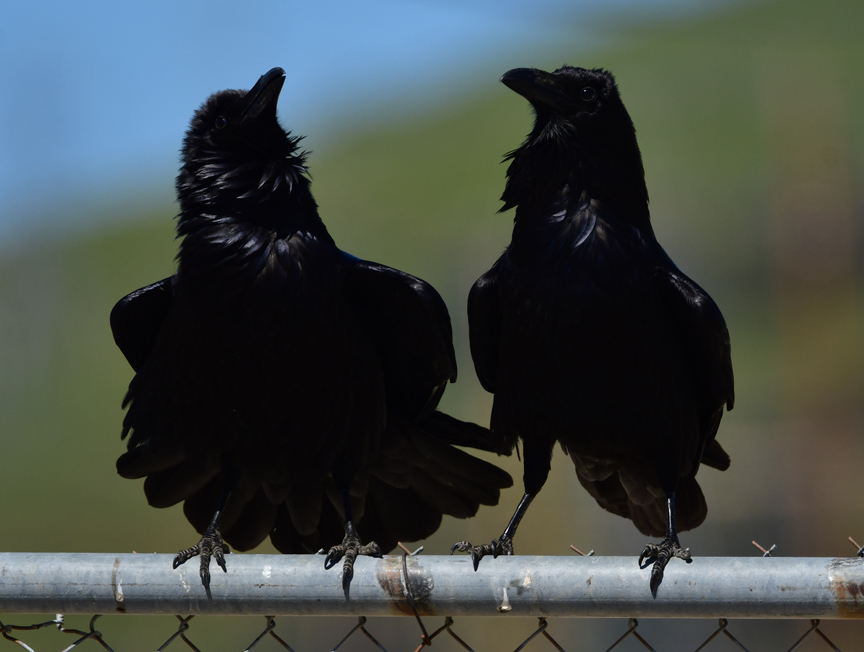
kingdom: Animalia
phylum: Chordata
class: Aves
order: Passeriformes
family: Corvidae
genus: Corvus
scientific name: Corvus corax
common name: Common raven
